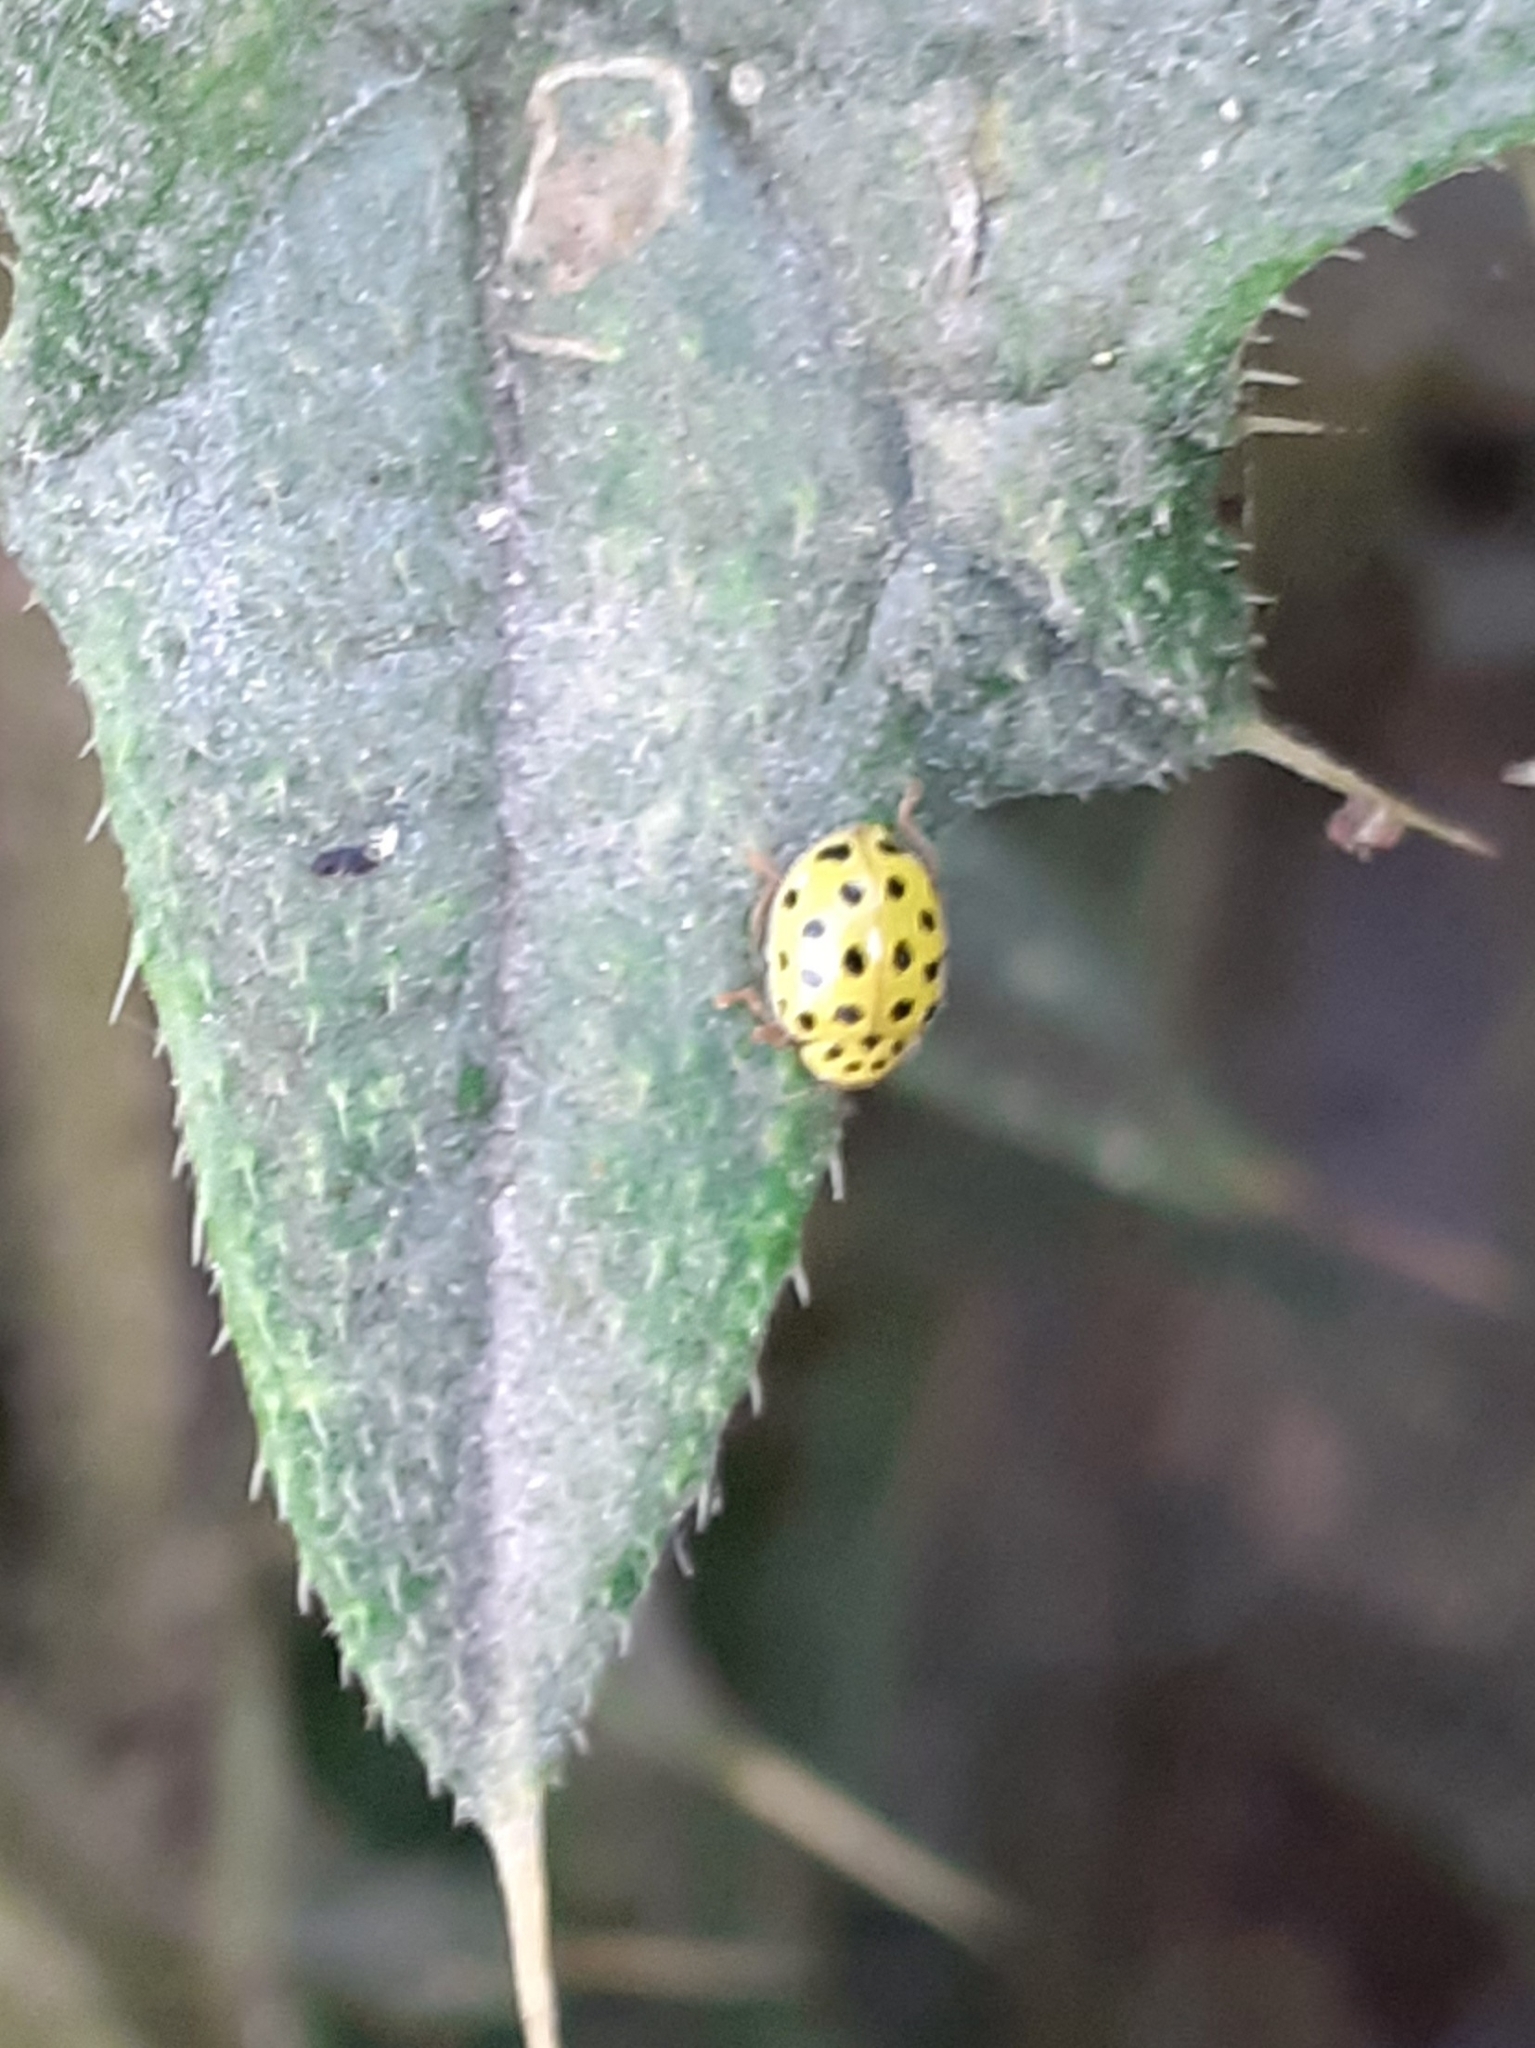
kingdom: Animalia
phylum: Arthropoda
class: Insecta
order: Coleoptera
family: Coccinellidae
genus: Psyllobora
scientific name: Psyllobora vigintiduopunctata
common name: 22-spot ladybird
